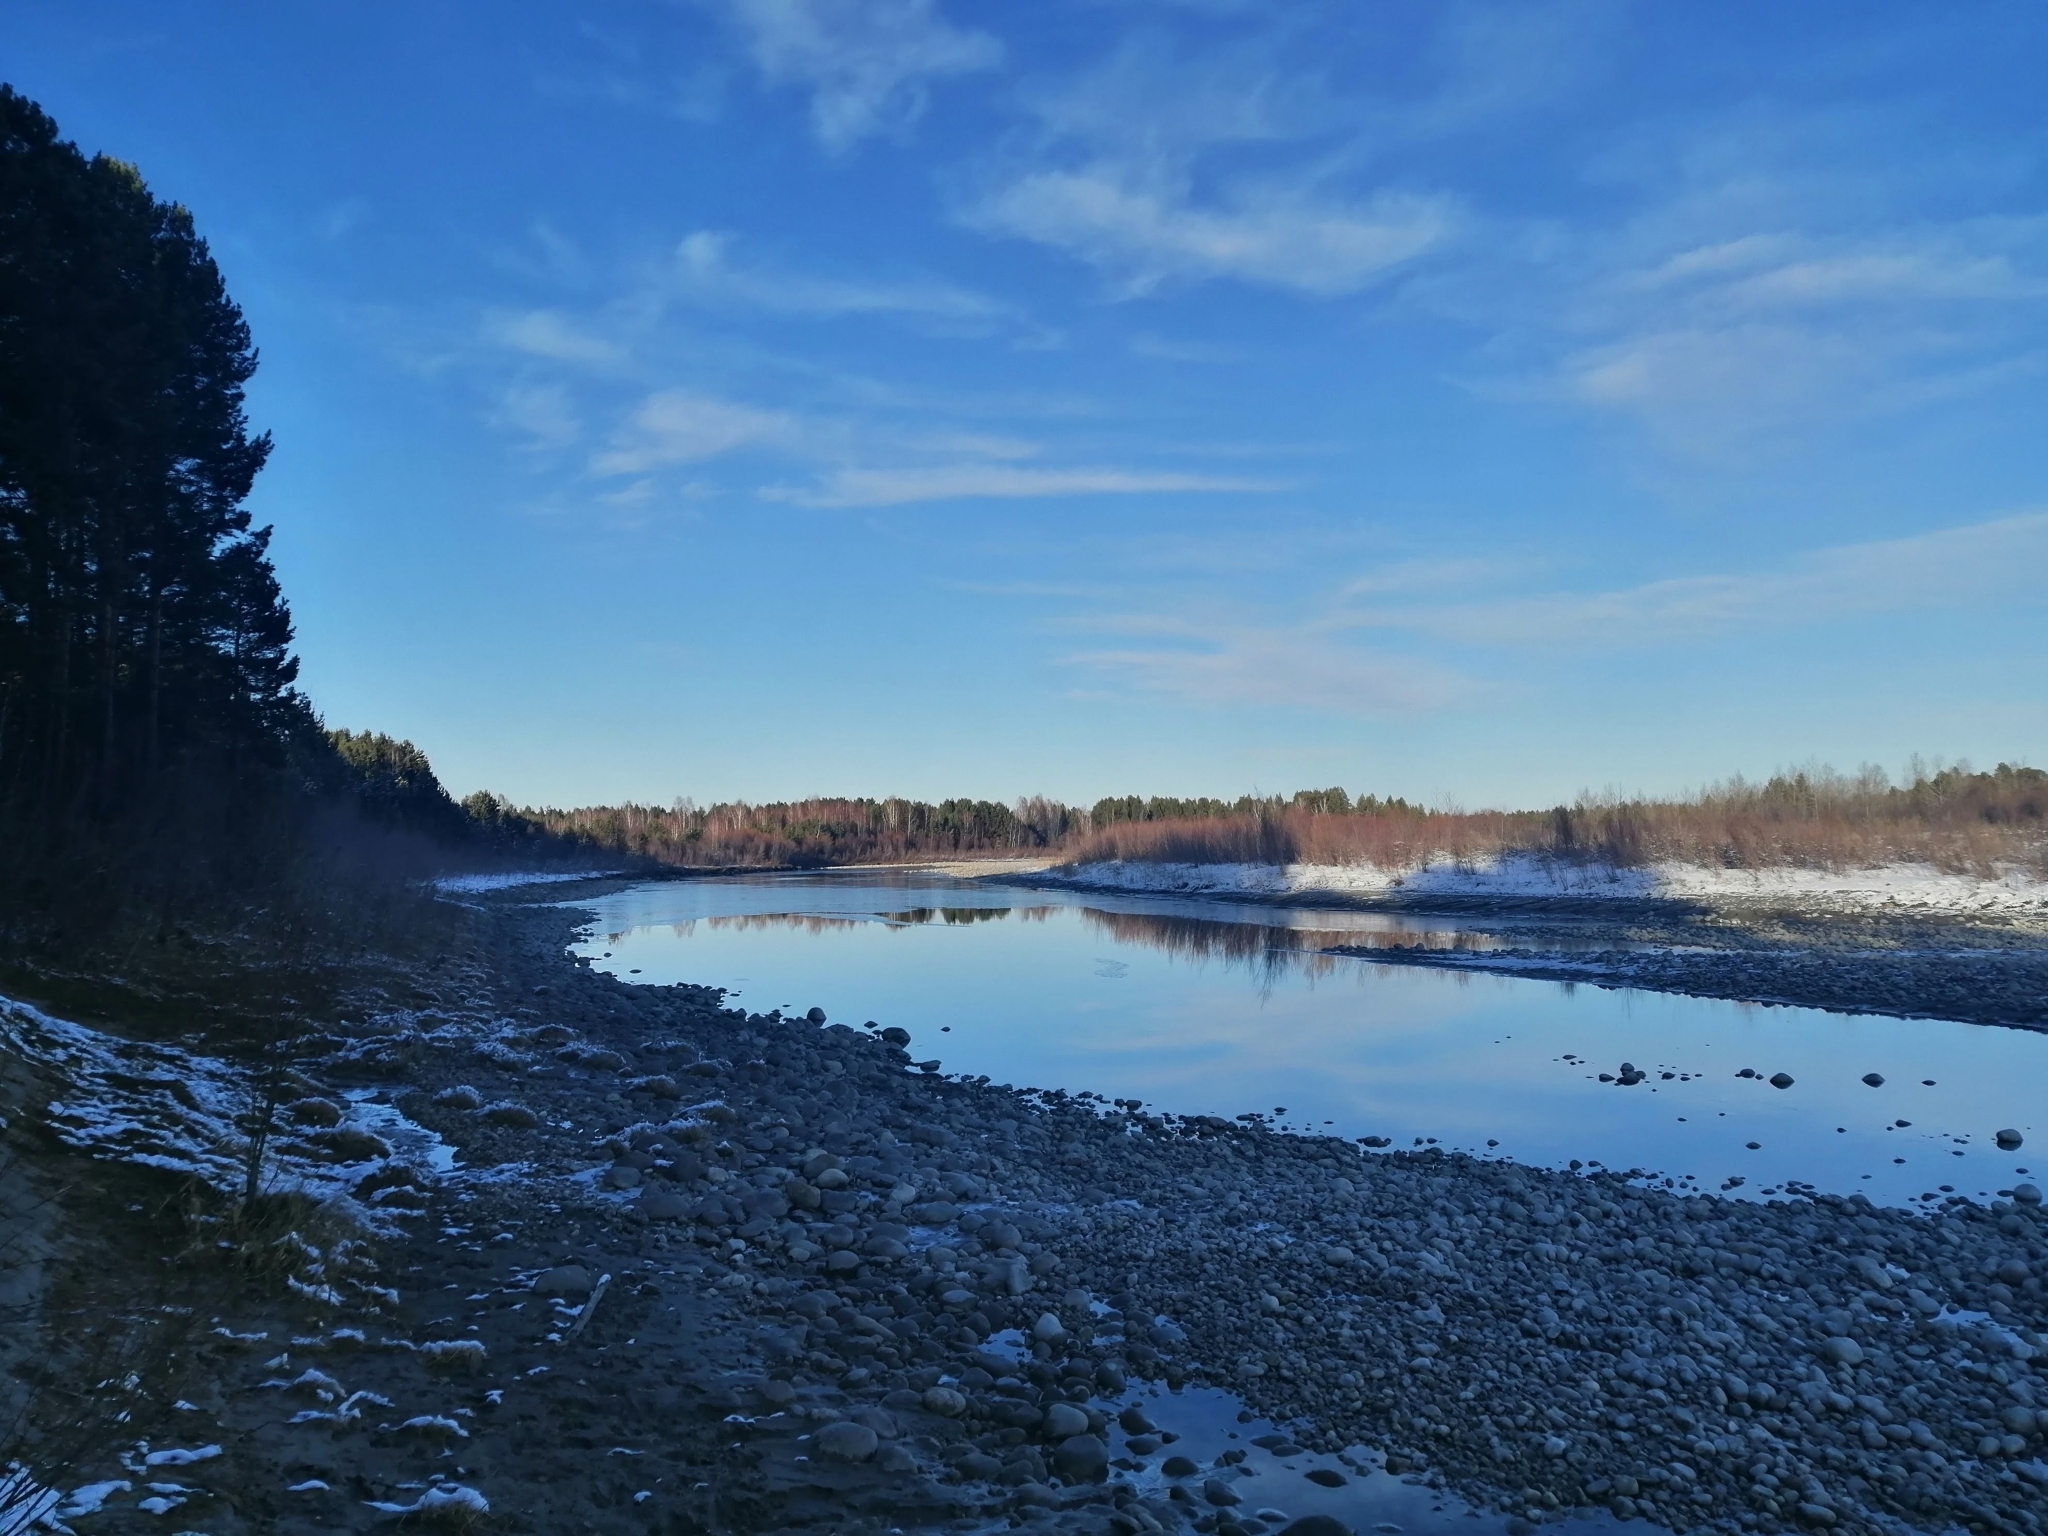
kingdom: Plantae
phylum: Tracheophyta
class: Pinopsida
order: Pinales
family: Pinaceae
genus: Pinus
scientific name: Pinus sylvestris
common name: Scots pine
